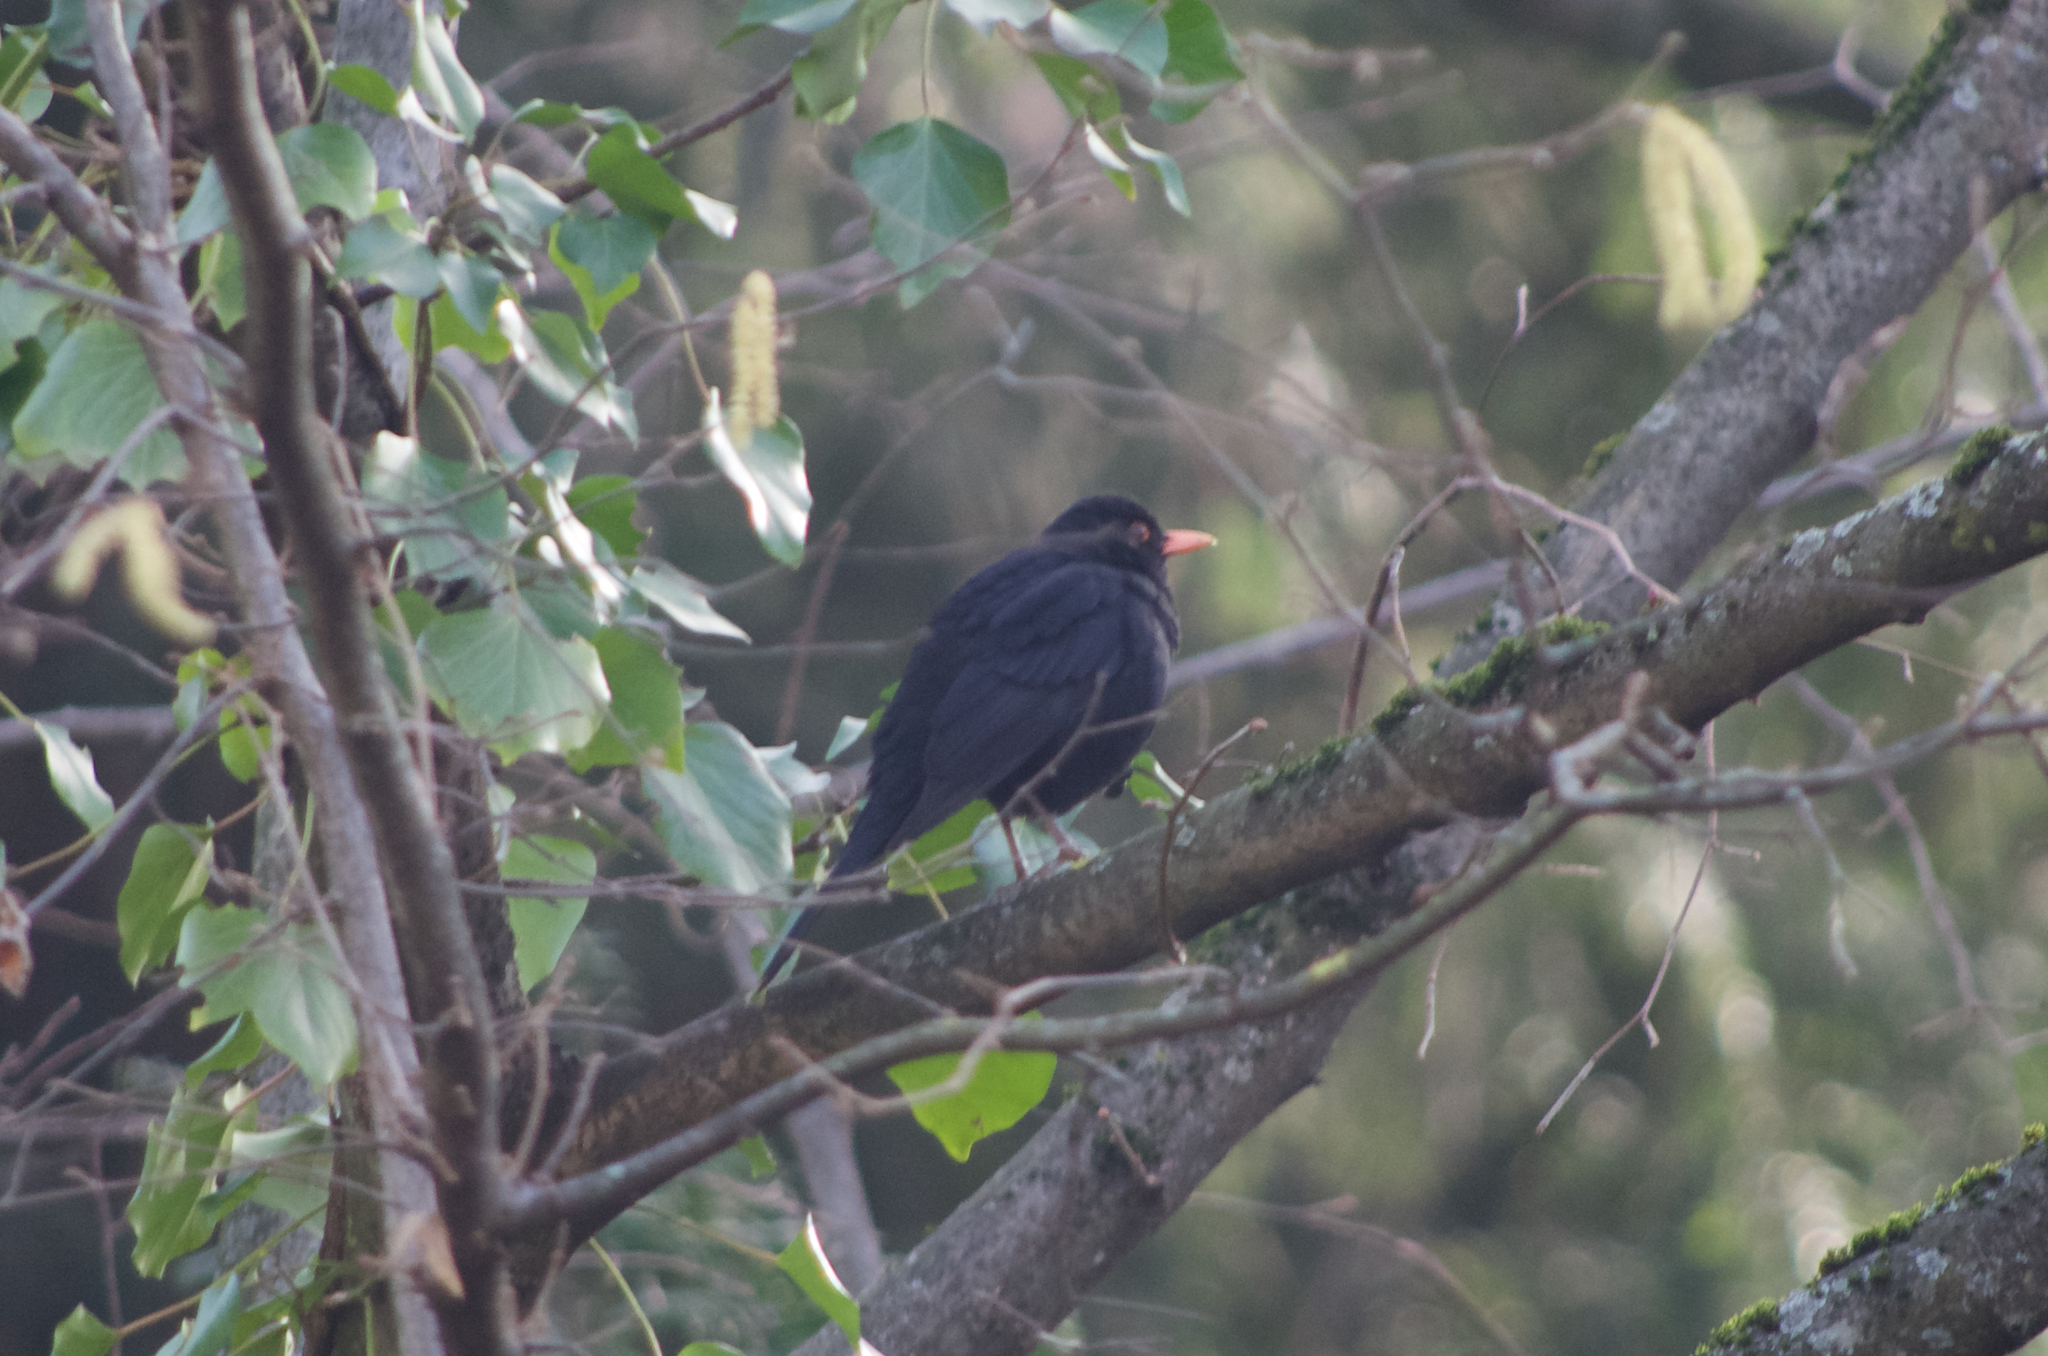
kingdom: Animalia
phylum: Chordata
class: Aves
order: Passeriformes
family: Turdidae
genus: Turdus
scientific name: Turdus merula
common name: Common blackbird
